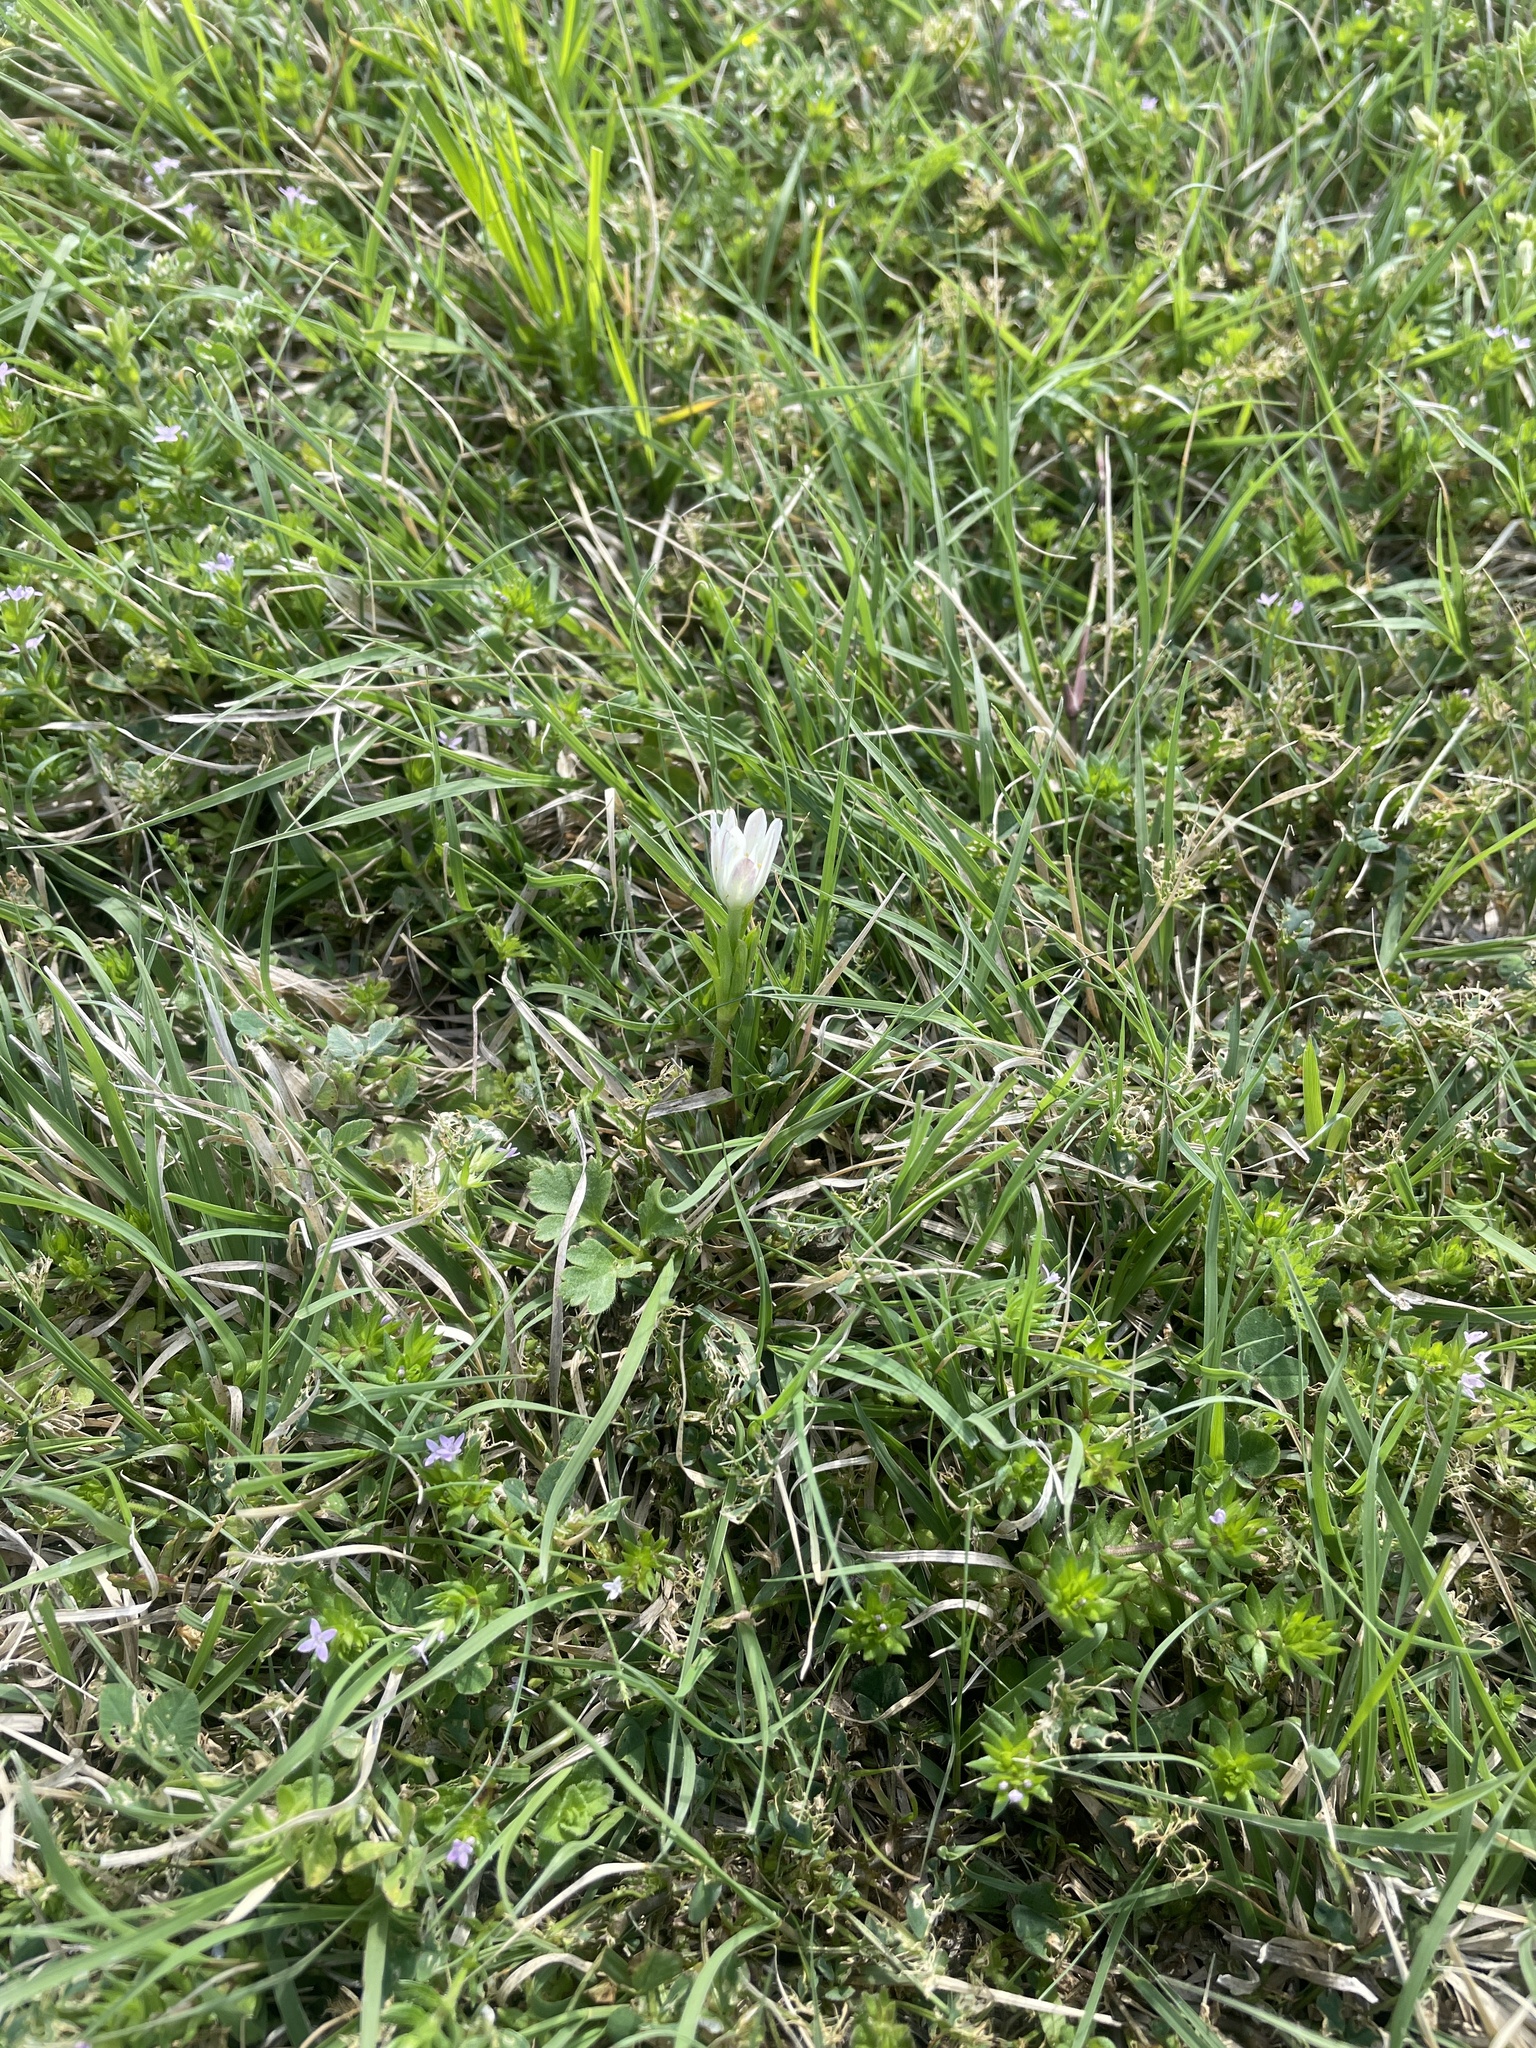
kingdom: Plantae
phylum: Tracheophyta
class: Magnoliopsida
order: Ranunculales
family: Ranunculaceae
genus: Anemone
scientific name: Anemone berlandieri
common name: Ten-petal anemone
